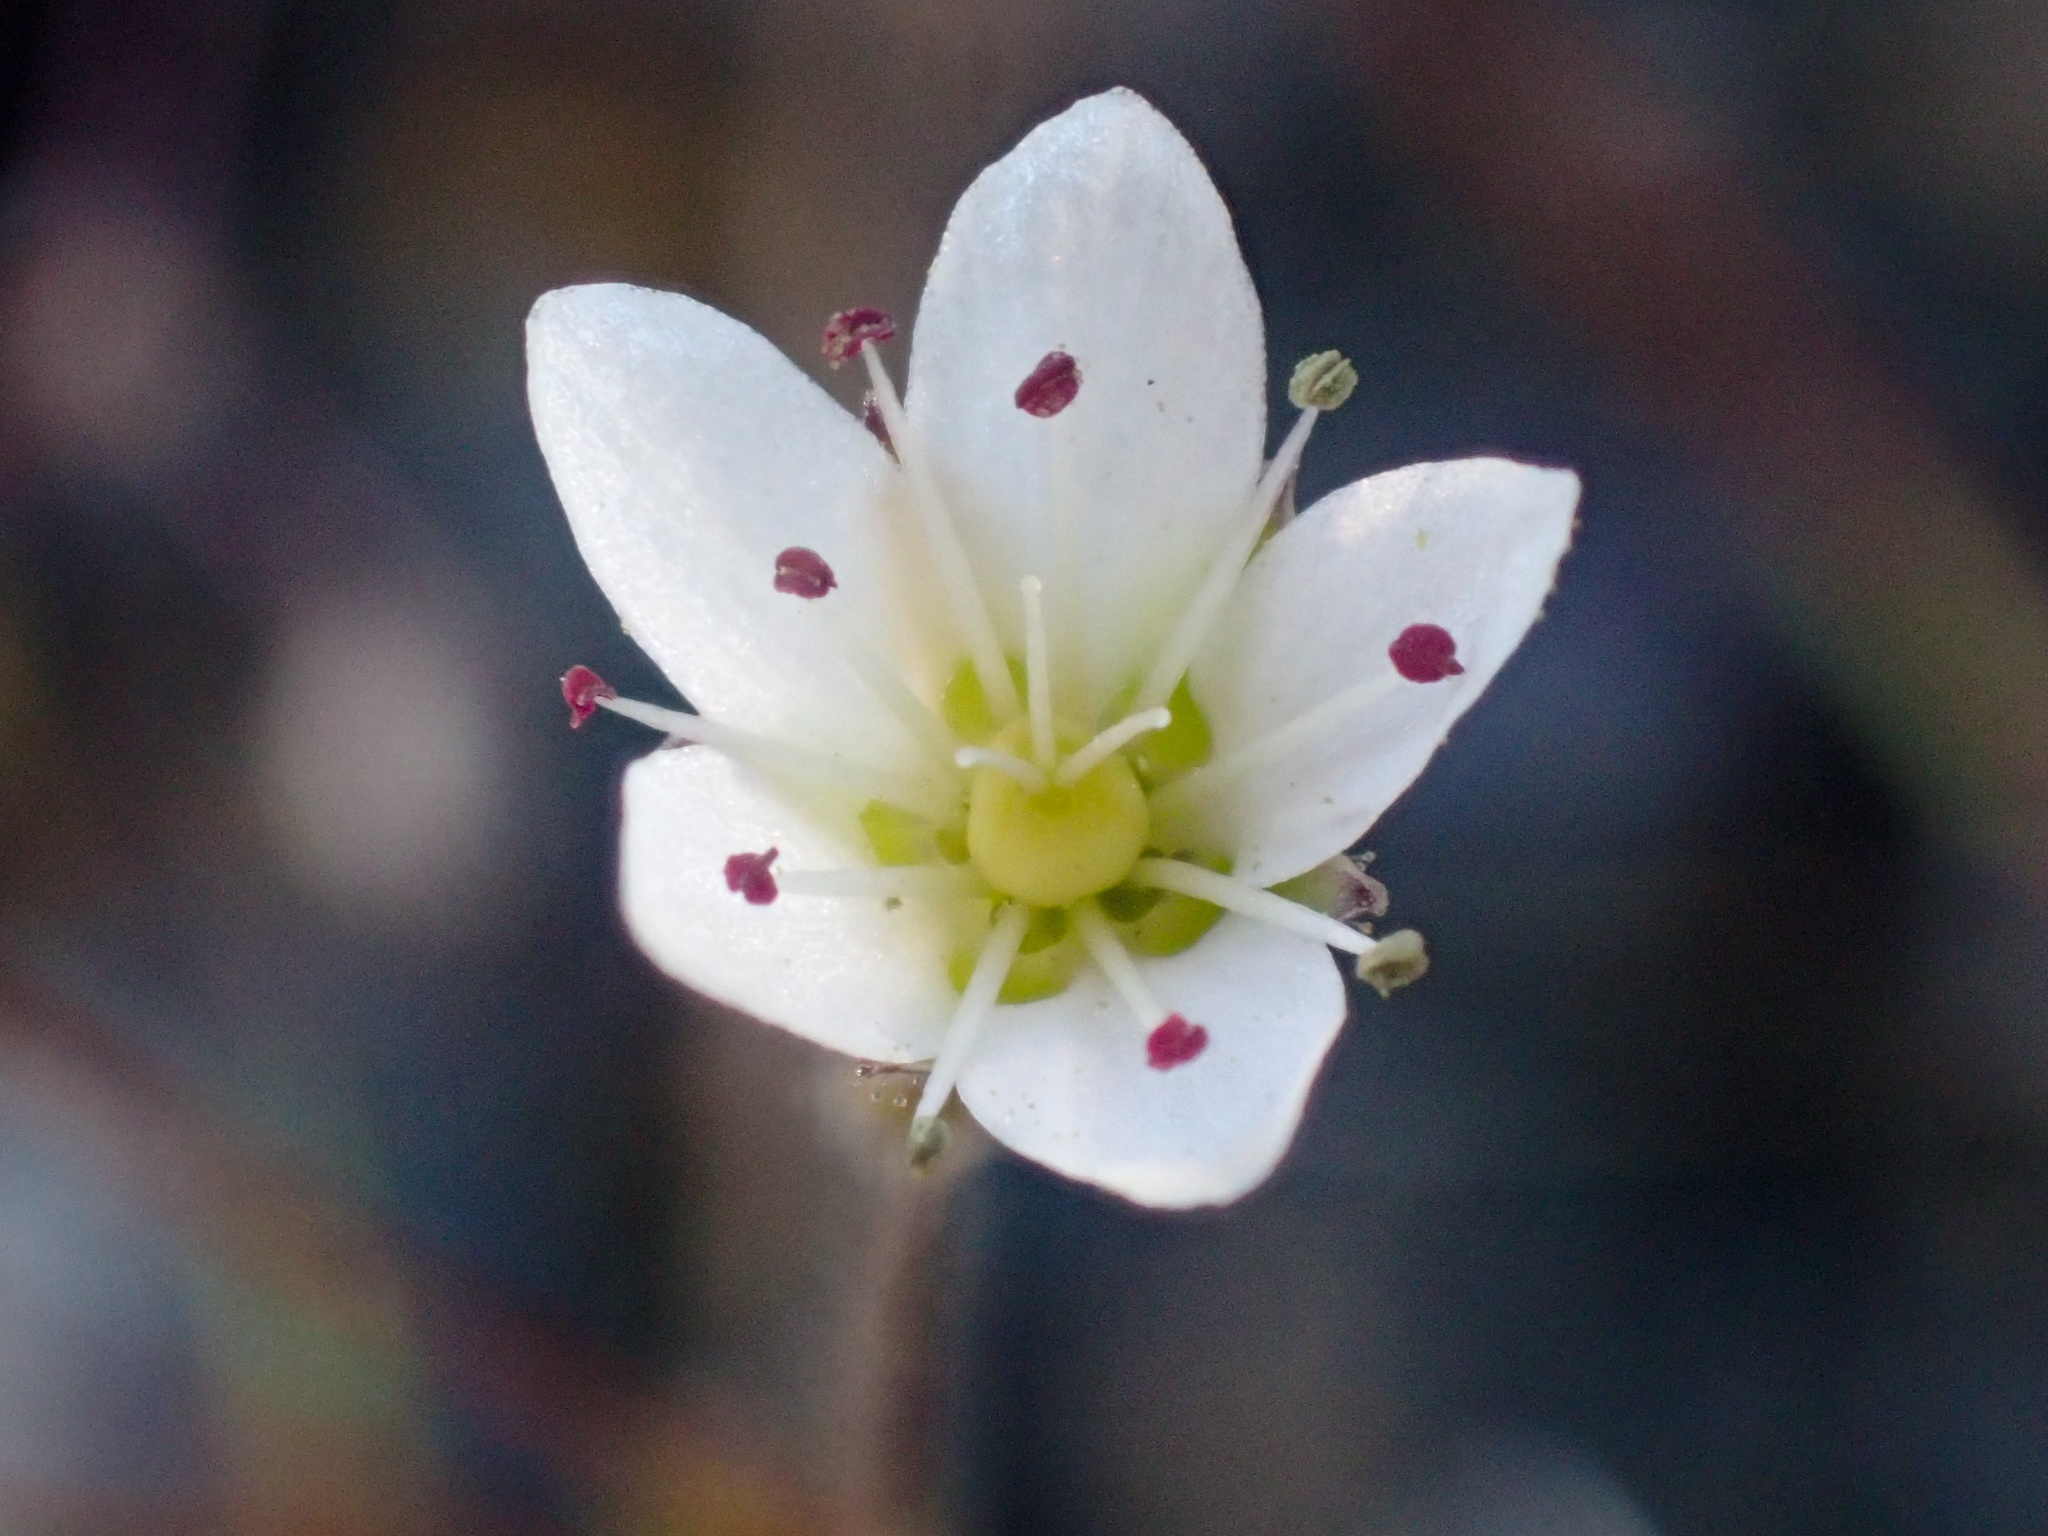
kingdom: Plantae
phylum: Tracheophyta
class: Magnoliopsida
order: Caryophyllales
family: Caryophyllaceae
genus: Sabulina
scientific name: Sabulina howellii
